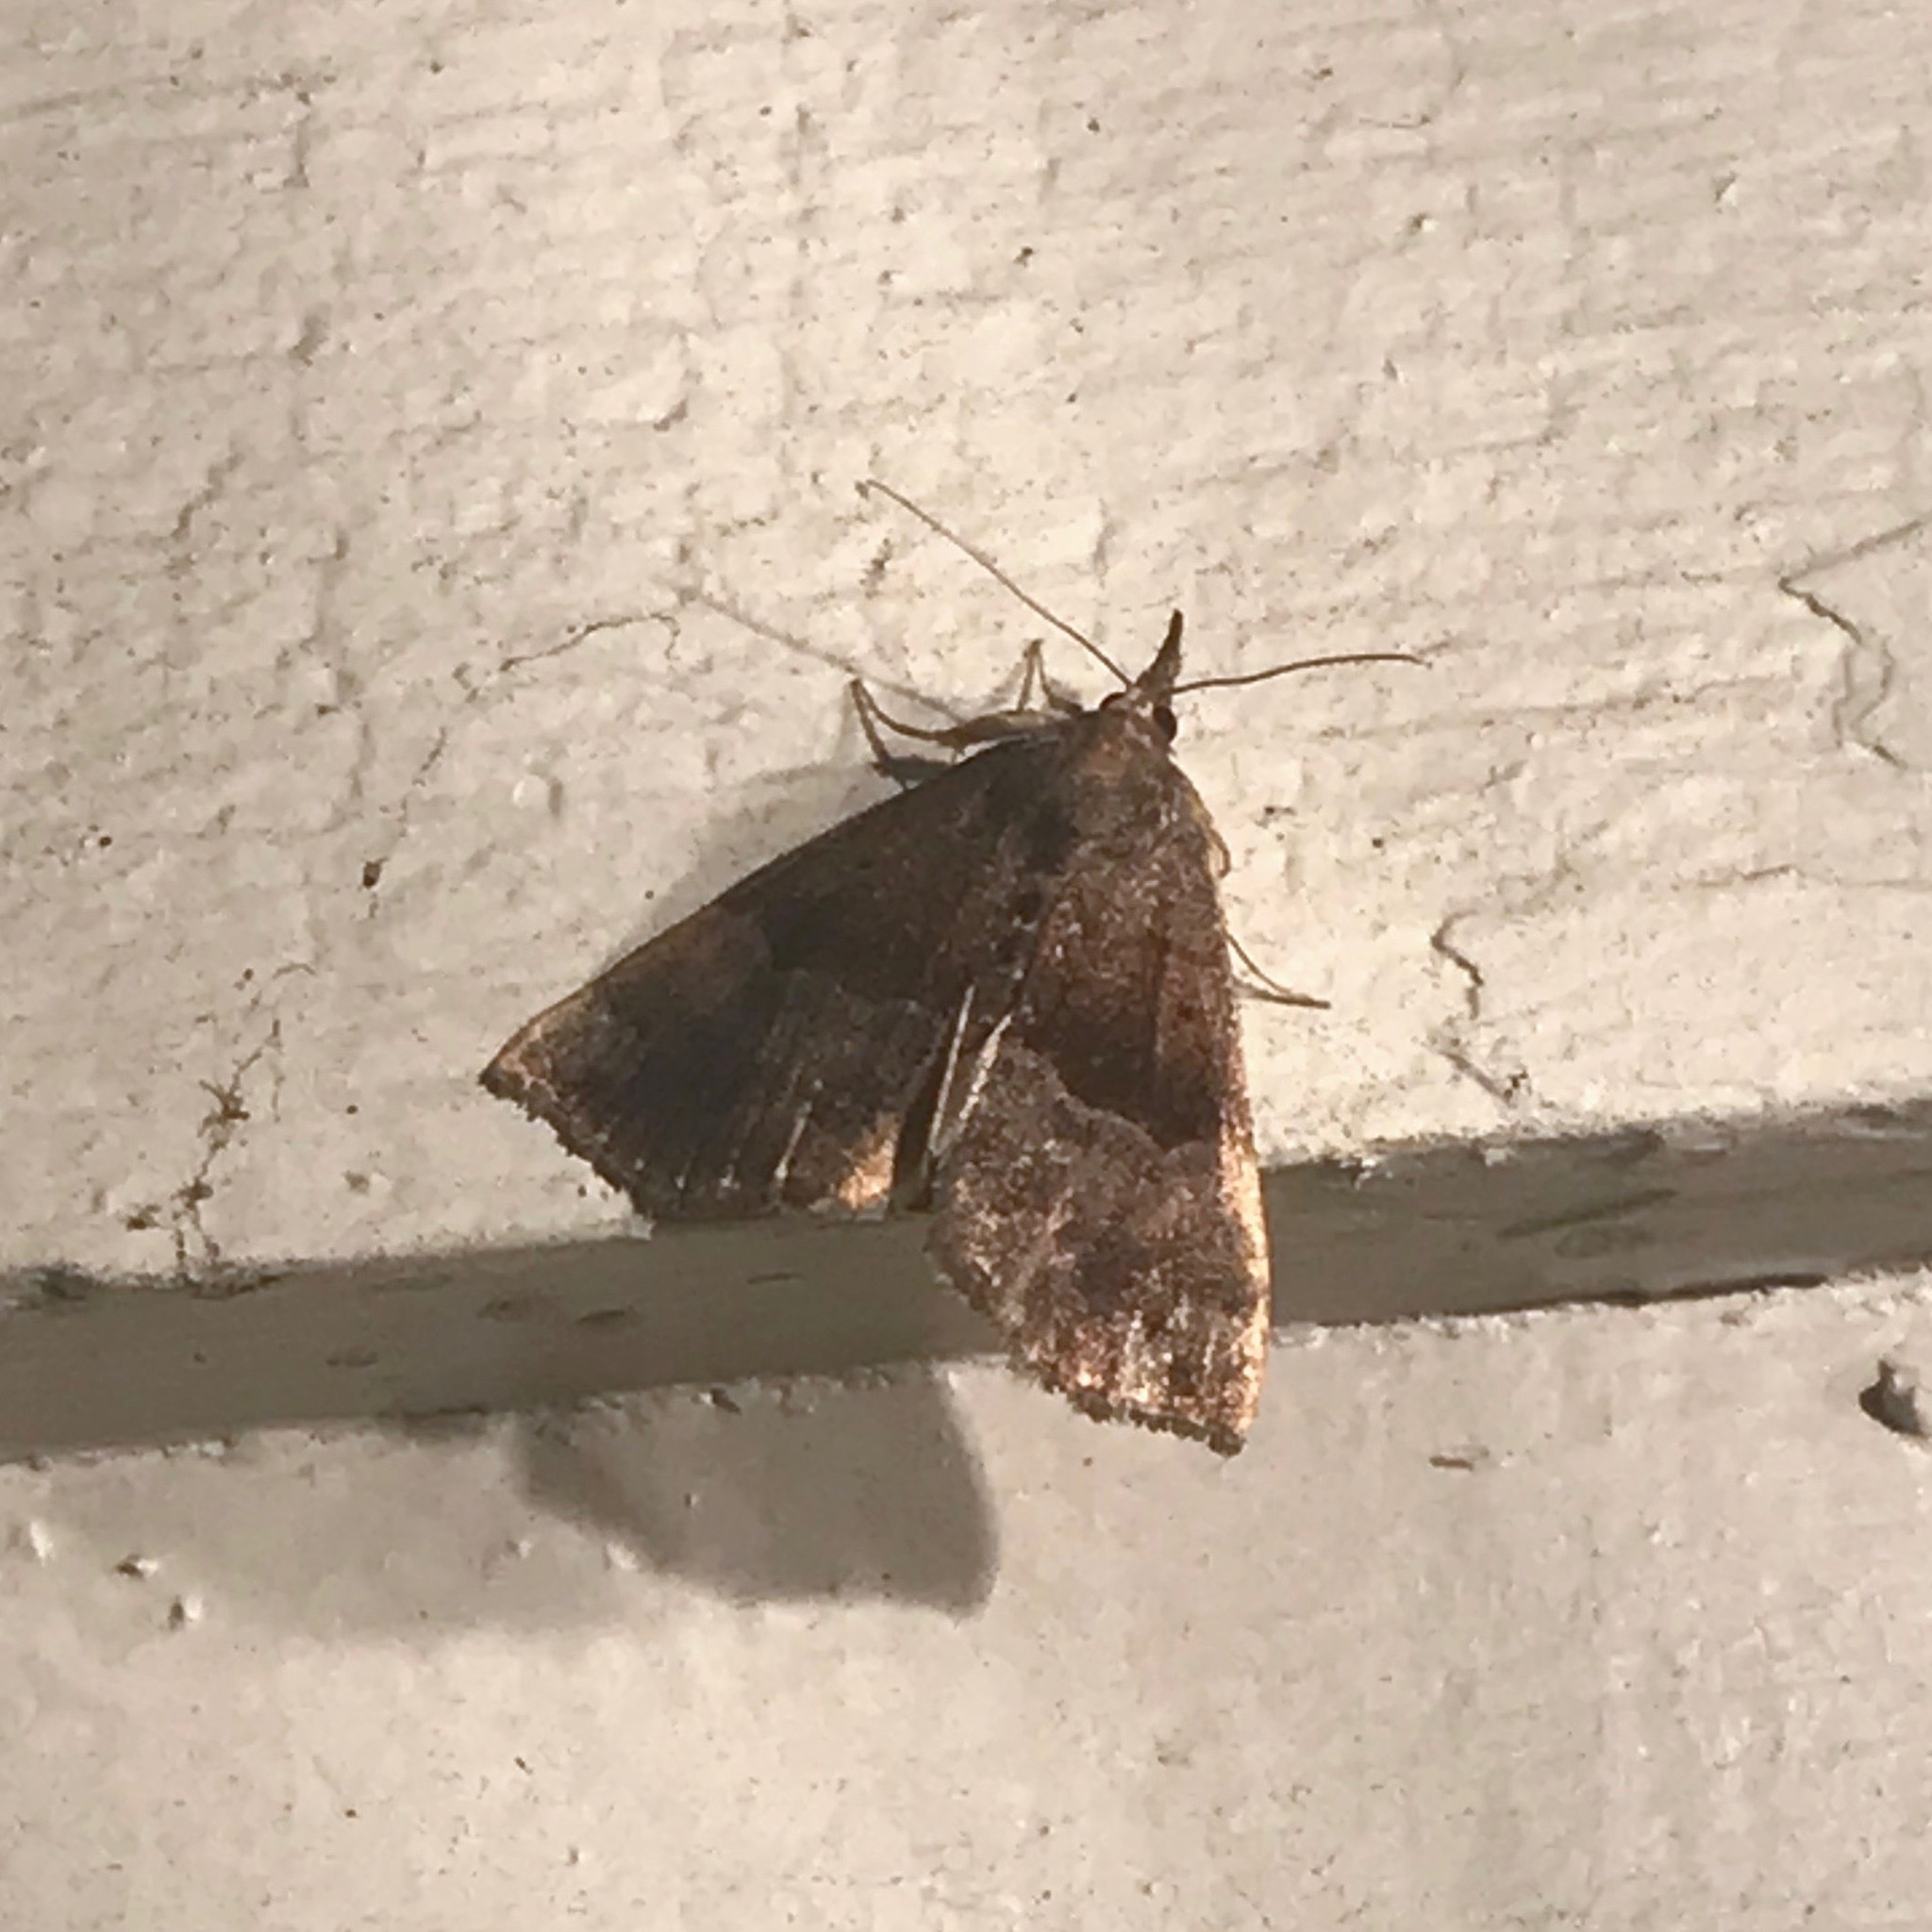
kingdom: Animalia
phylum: Arthropoda
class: Insecta
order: Lepidoptera
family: Erebidae
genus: Hypena
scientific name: Hypena madefactalis
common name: Gray-edged snout
